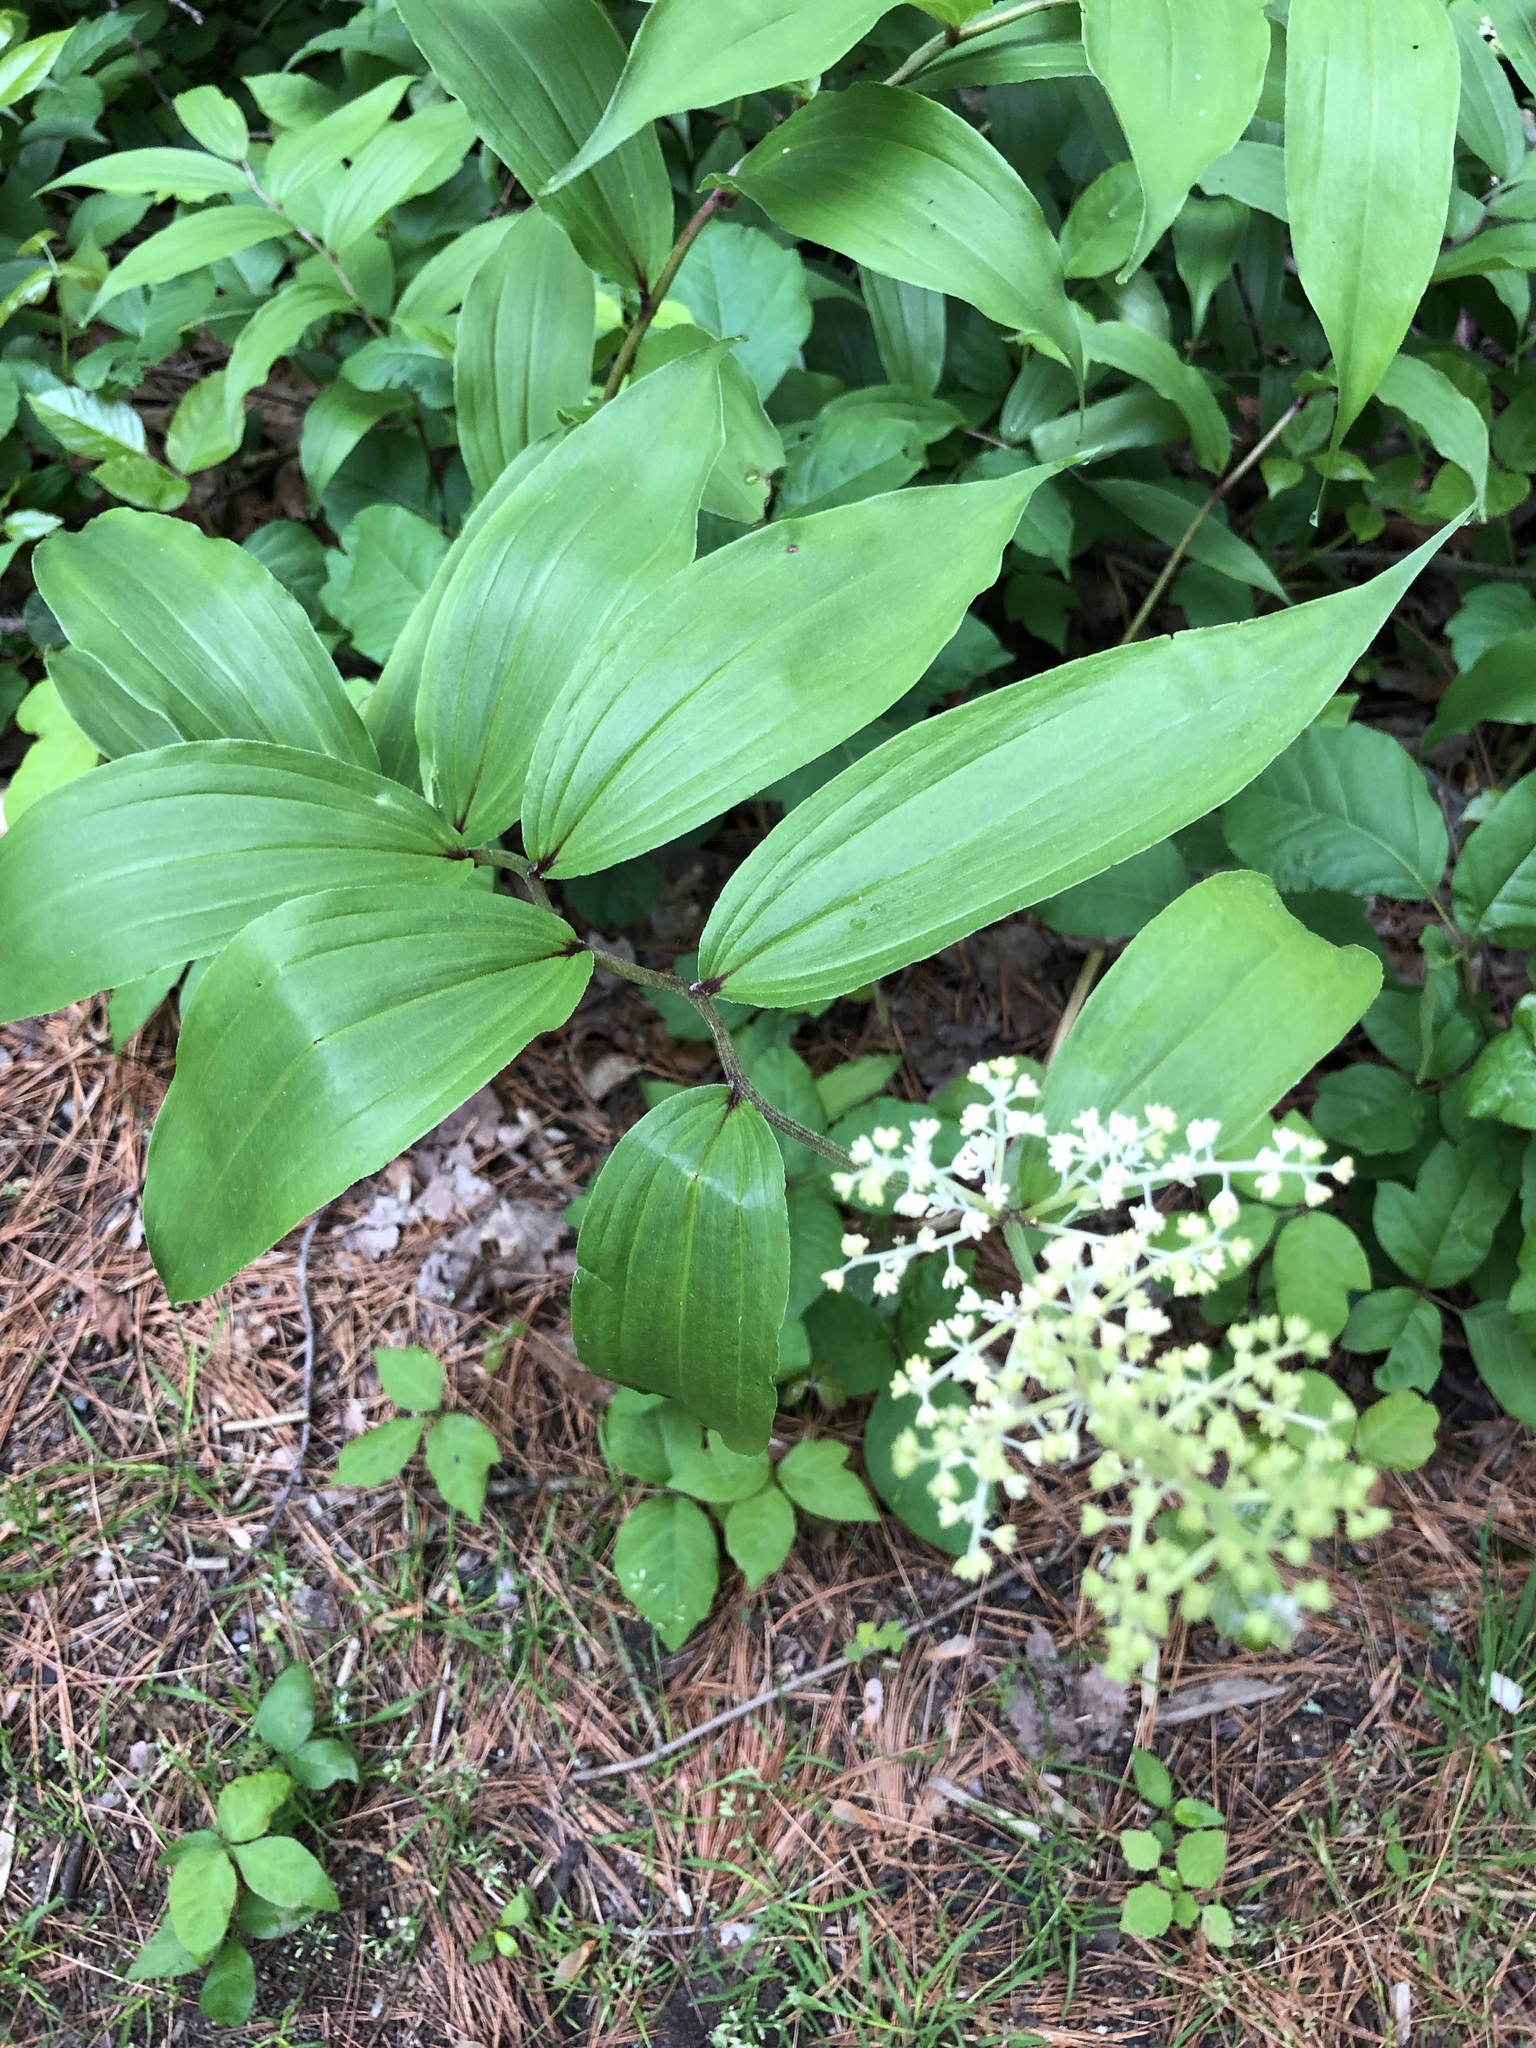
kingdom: Plantae
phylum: Tracheophyta
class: Liliopsida
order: Asparagales
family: Asparagaceae
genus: Maianthemum
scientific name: Maianthemum racemosum
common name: False spikenard
